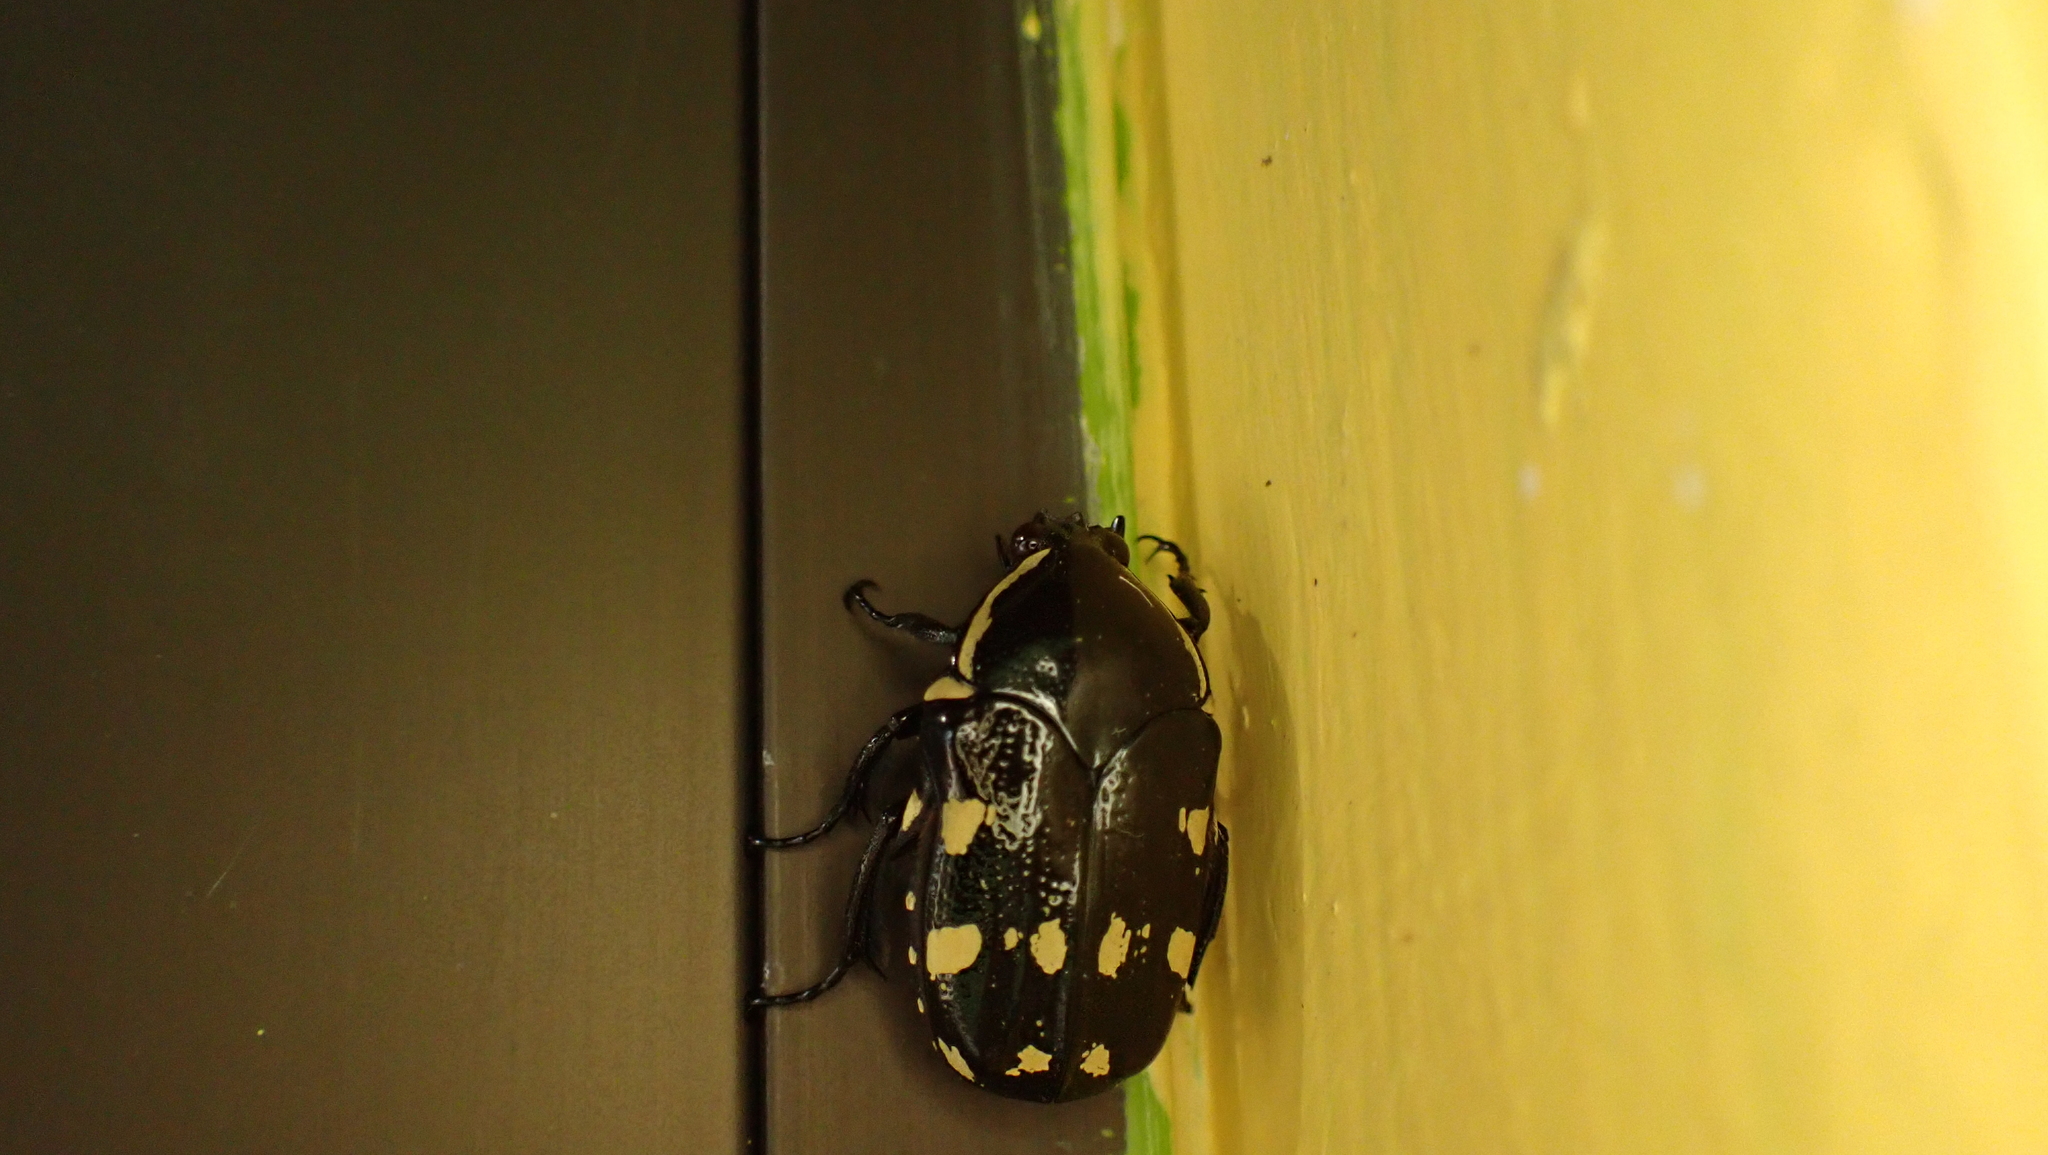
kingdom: Animalia
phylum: Arthropoda
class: Insecta
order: Coleoptera
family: Scarabaeidae
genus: Amithao
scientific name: Amithao decemguttatus
